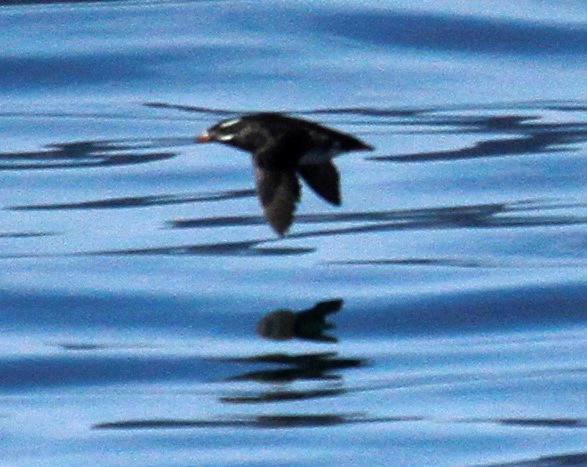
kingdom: Animalia
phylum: Chordata
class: Aves
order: Charadriiformes
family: Alcidae
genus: Cerorhinca
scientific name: Cerorhinca monocerata
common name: Rhinoceros auklet
